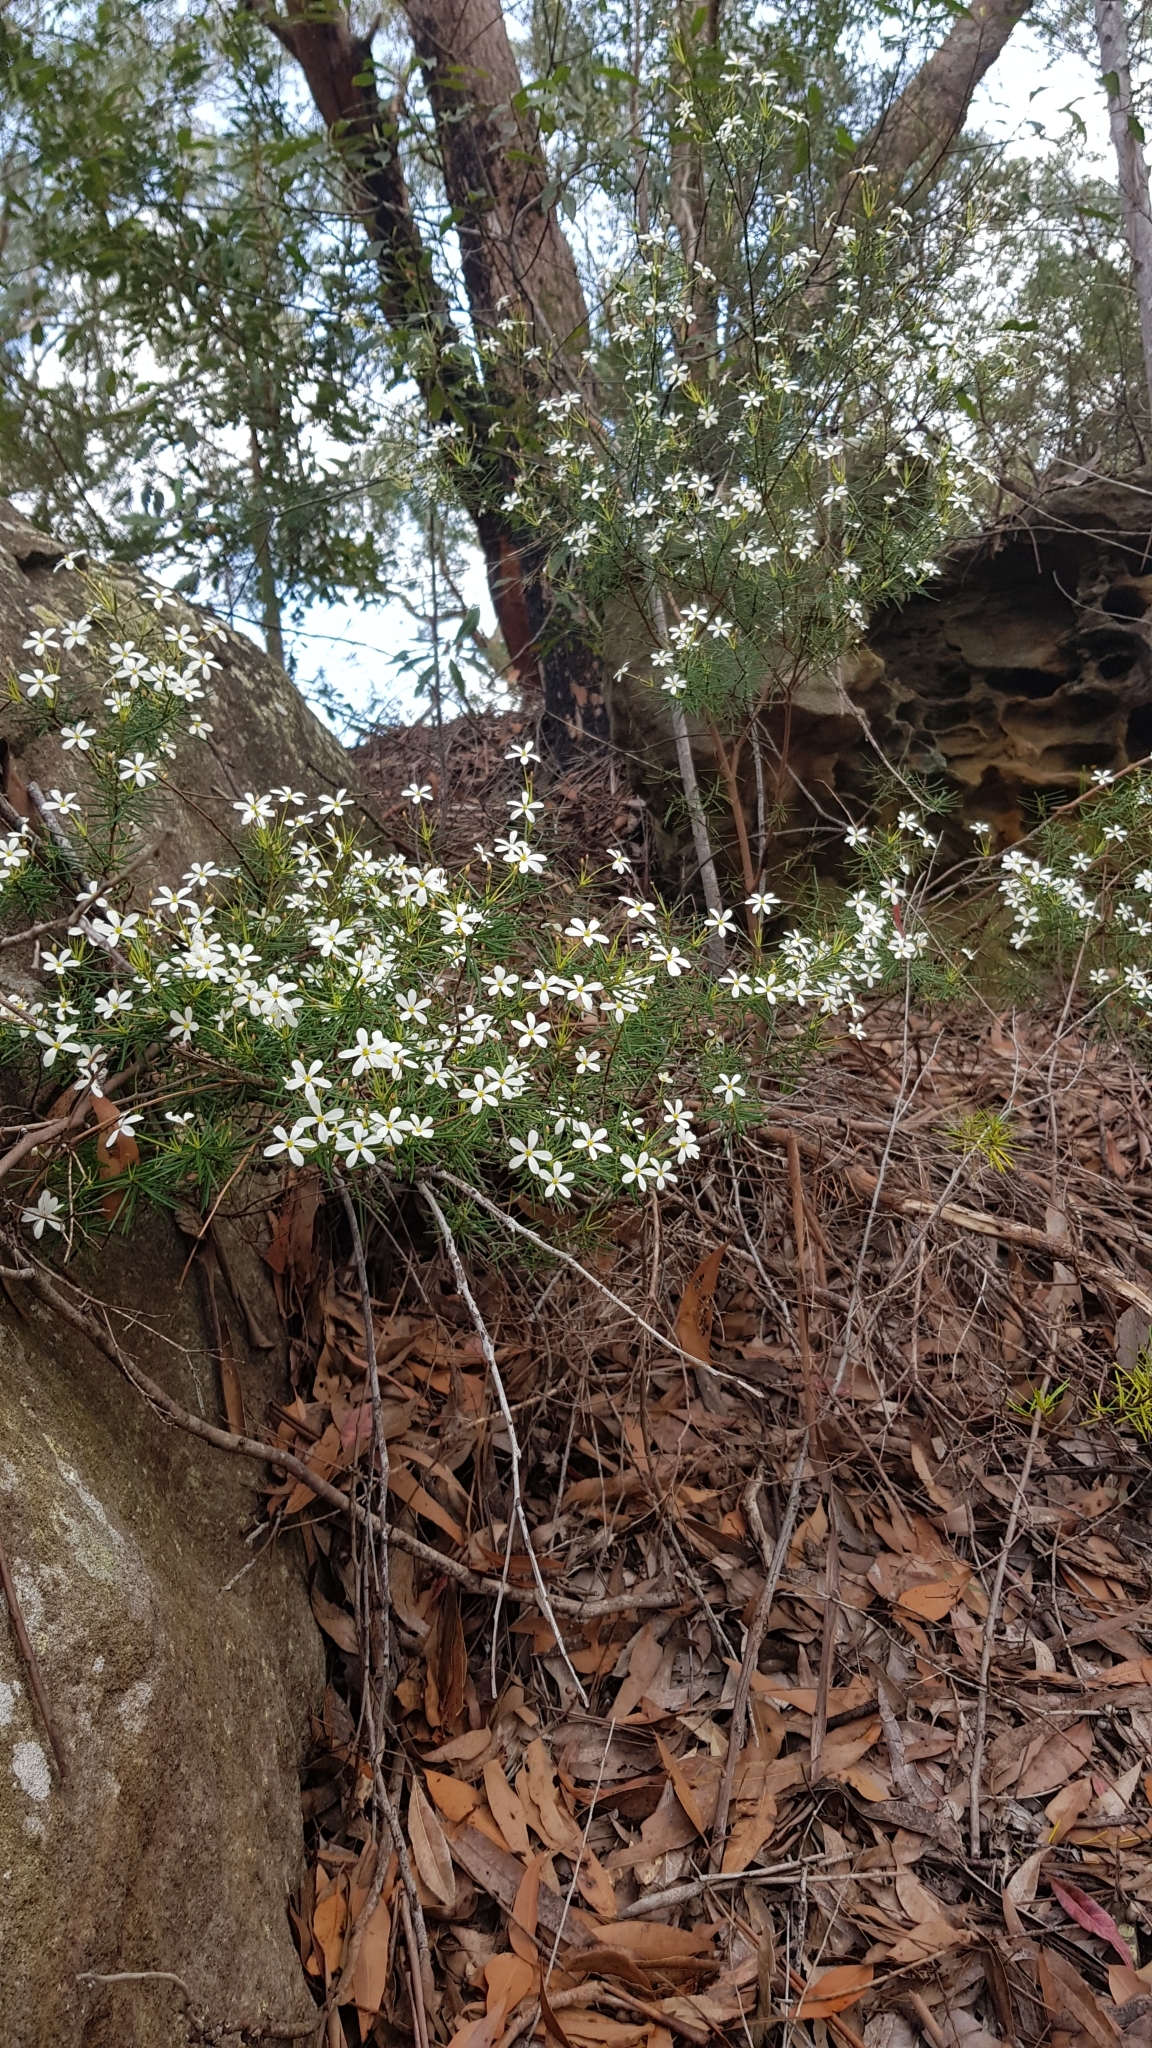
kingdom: Plantae
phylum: Tracheophyta
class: Magnoliopsida
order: Malpighiales
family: Euphorbiaceae
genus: Ricinocarpos
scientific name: Ricinocarpos pinifolius
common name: Weddingbush
